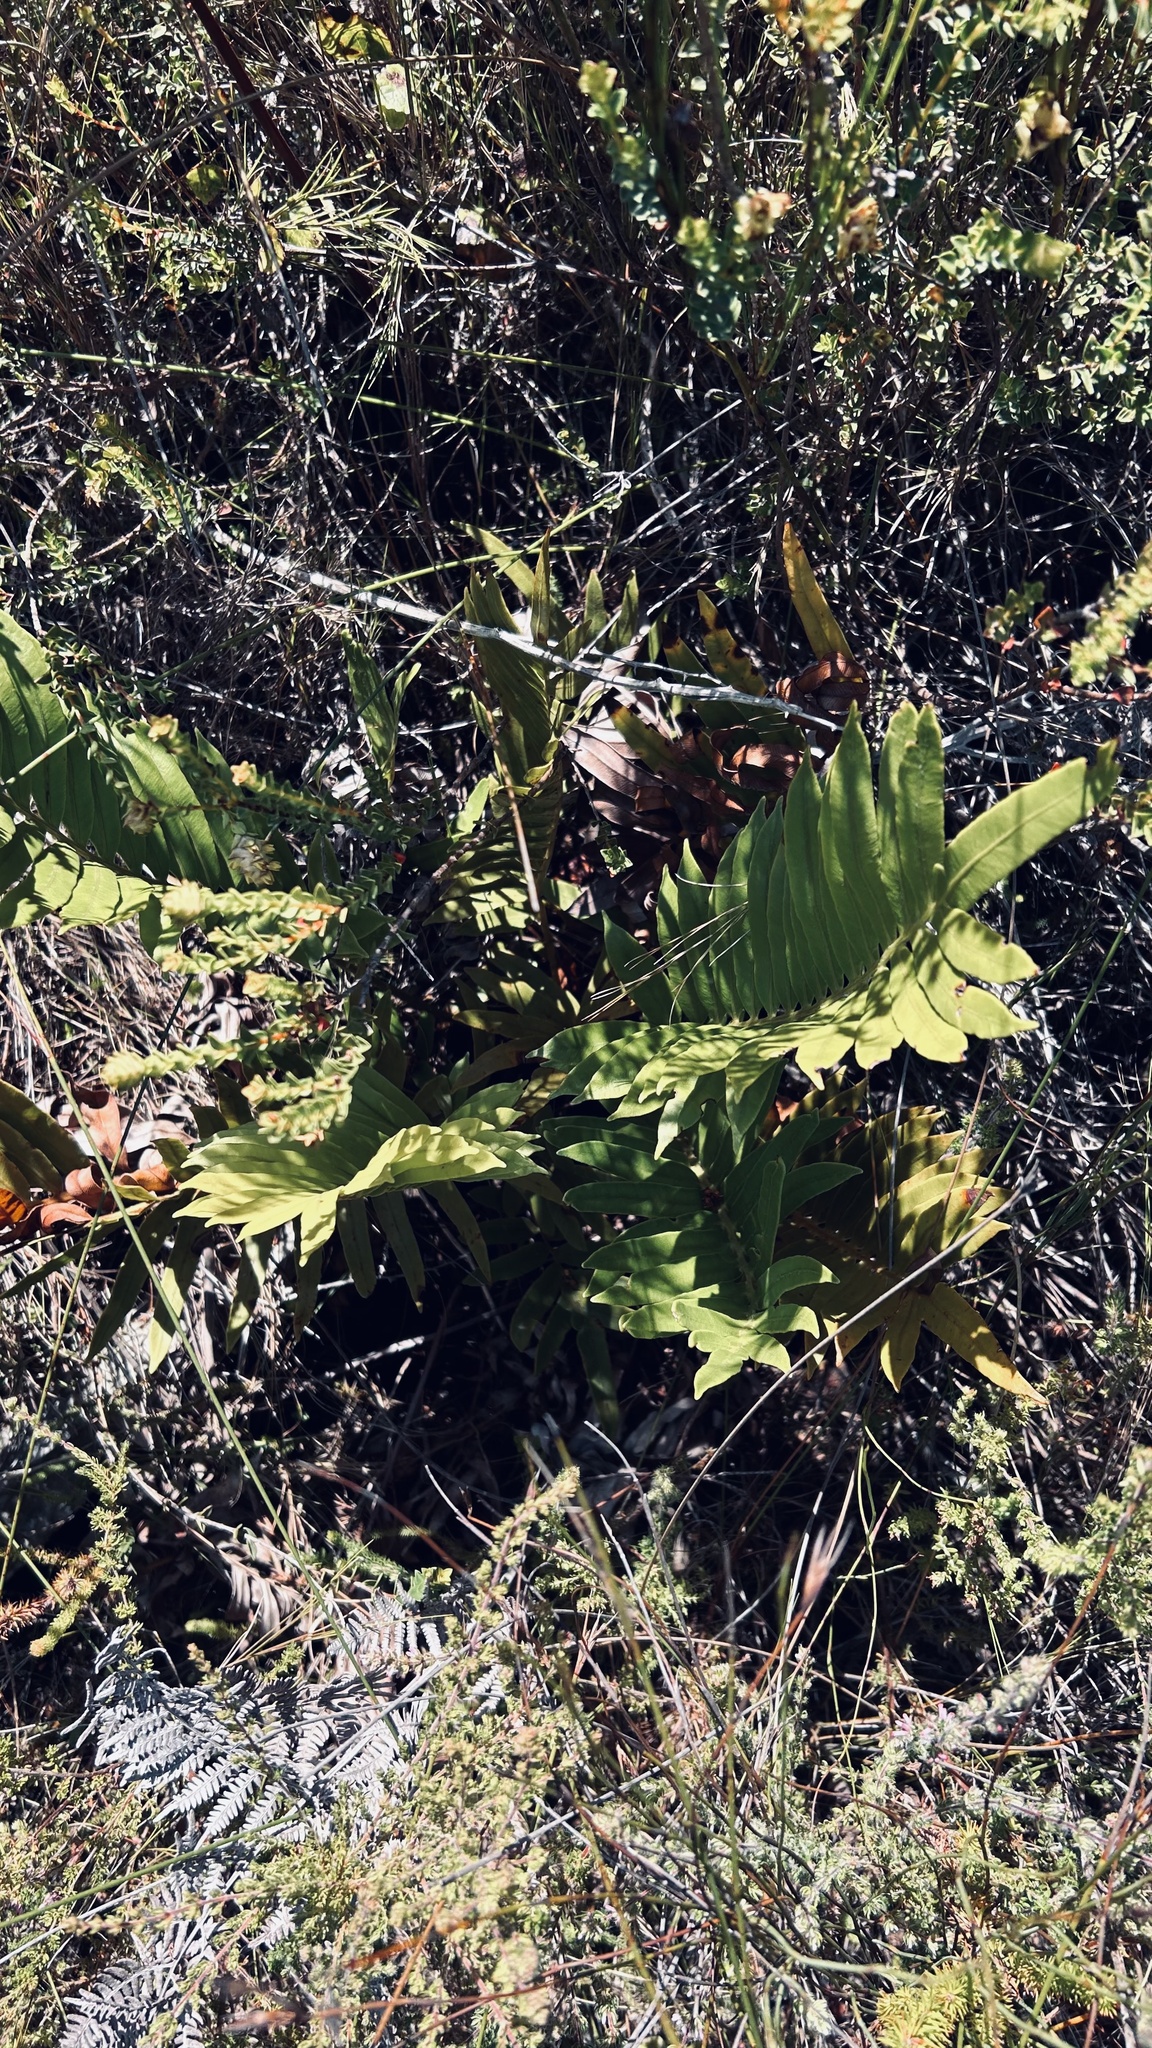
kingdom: Plantae
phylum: Tracheophyta
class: Polypodiopsida
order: Polypodiales
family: Blechnaceae
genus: Lomariocycas
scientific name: Lomariocycas tabularis
